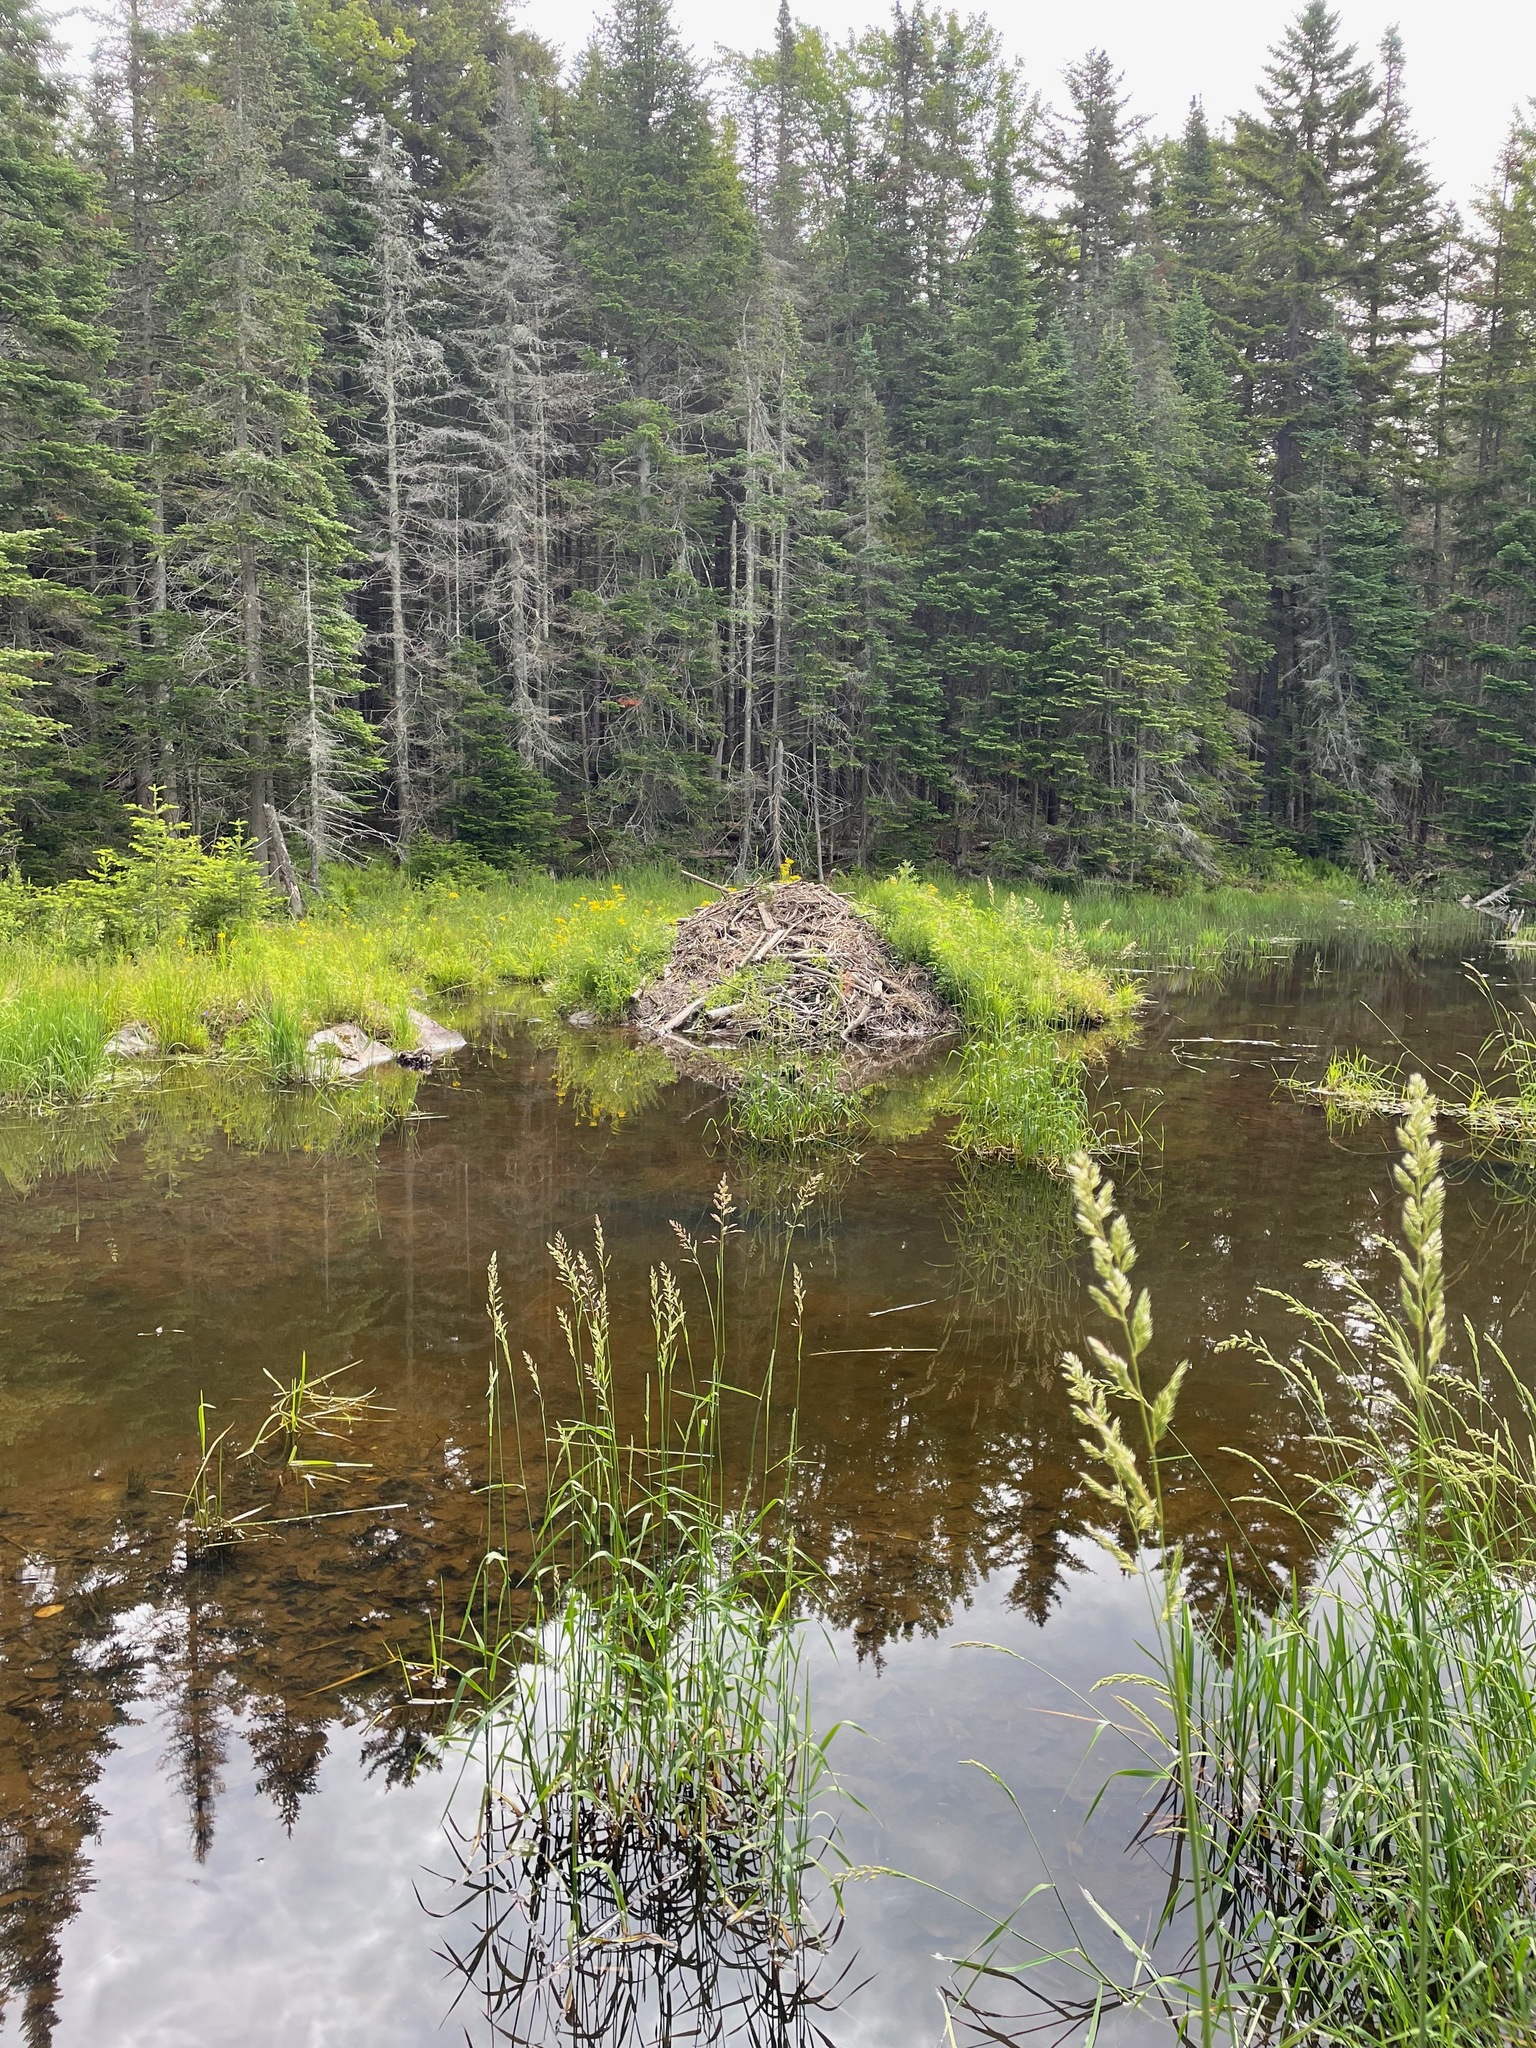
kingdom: Animalia
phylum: Chordata
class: Mammalia
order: Rodentia
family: Castoridae
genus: Castor
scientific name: Castor canadensis
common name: American beaver
